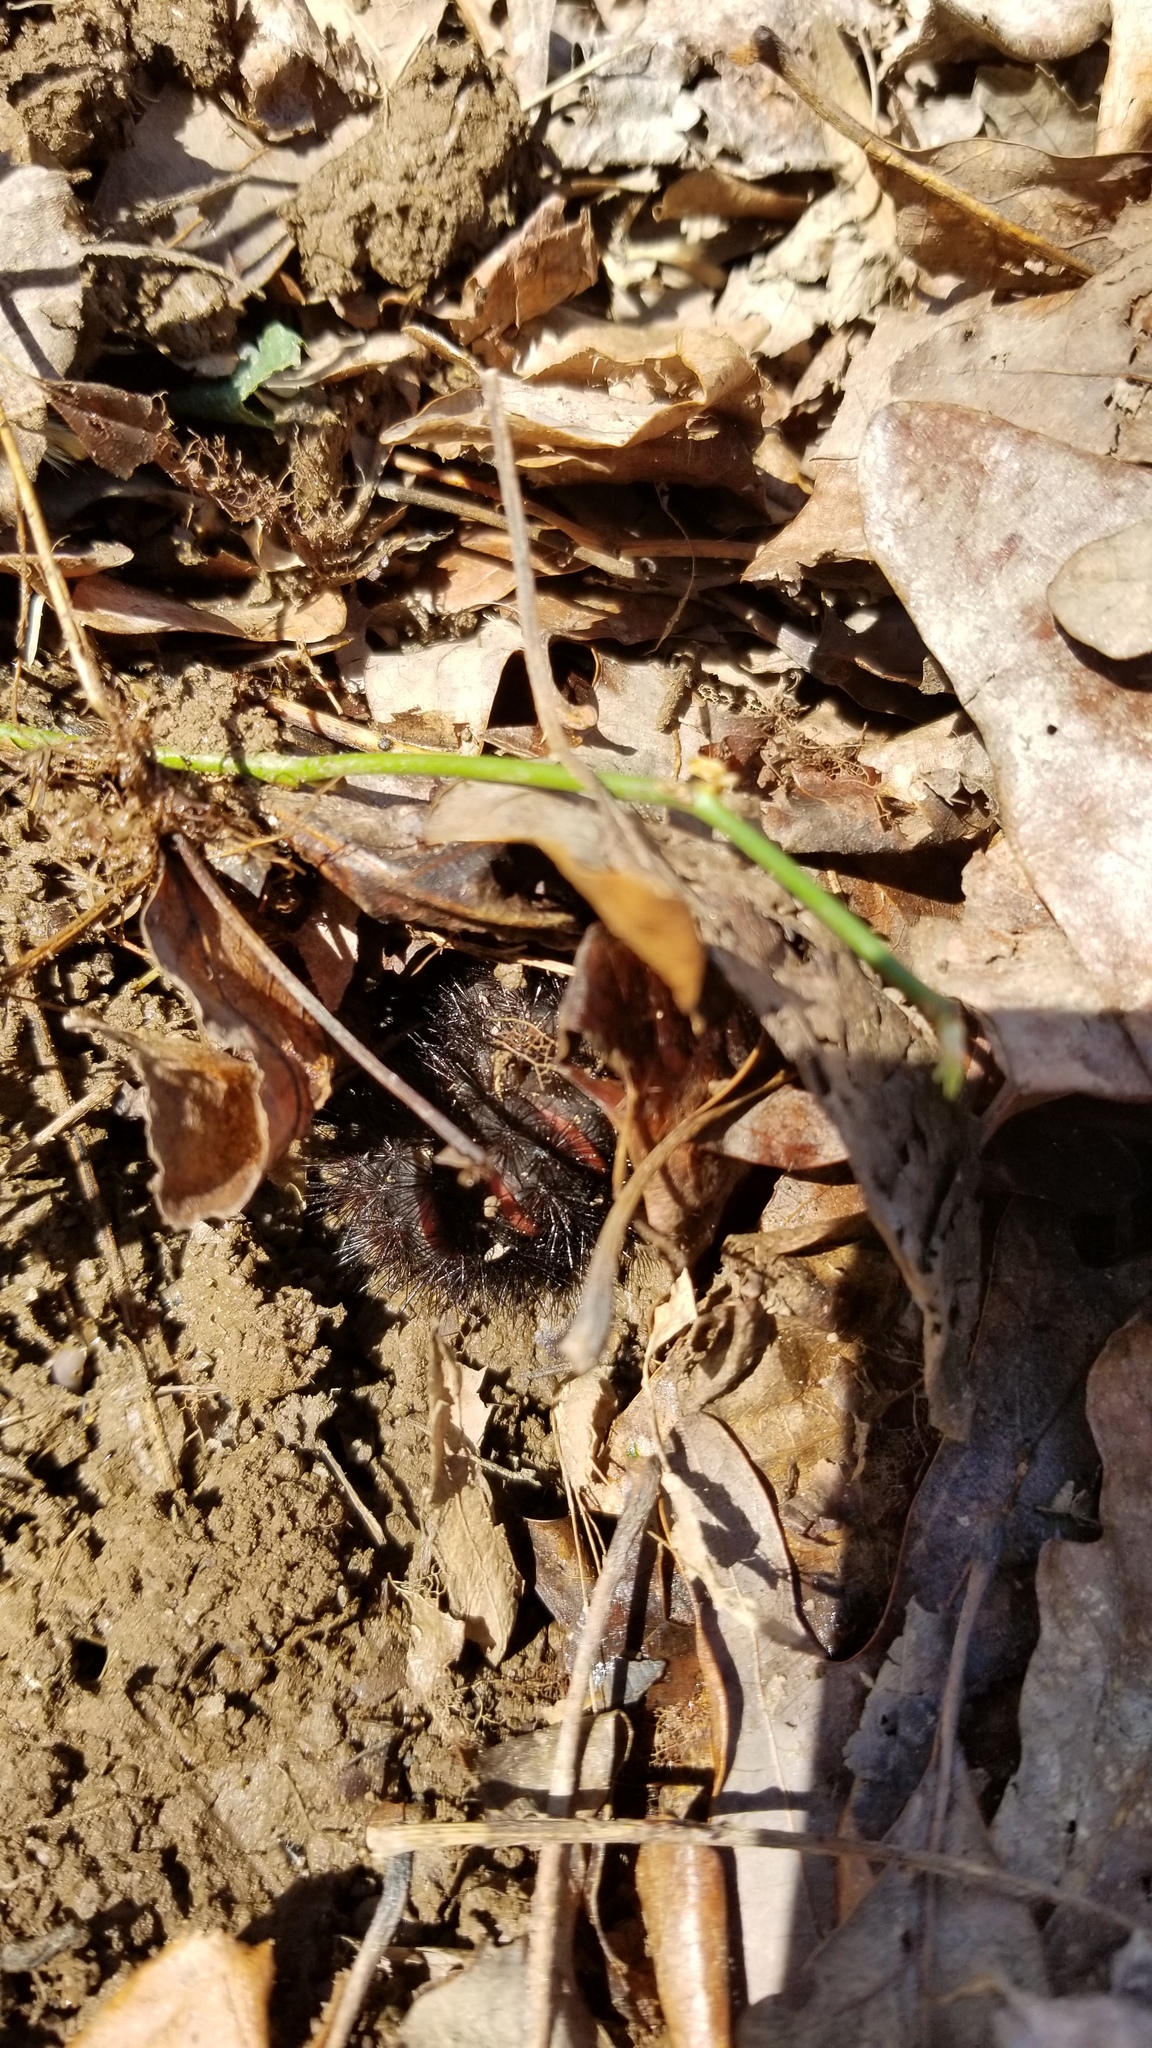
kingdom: Animalia
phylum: Arthropoda
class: Insecta
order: Lepidoptera
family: Erebidae
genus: Hypercompe
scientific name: Hypercompe scribonia
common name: Giant leopard moth
